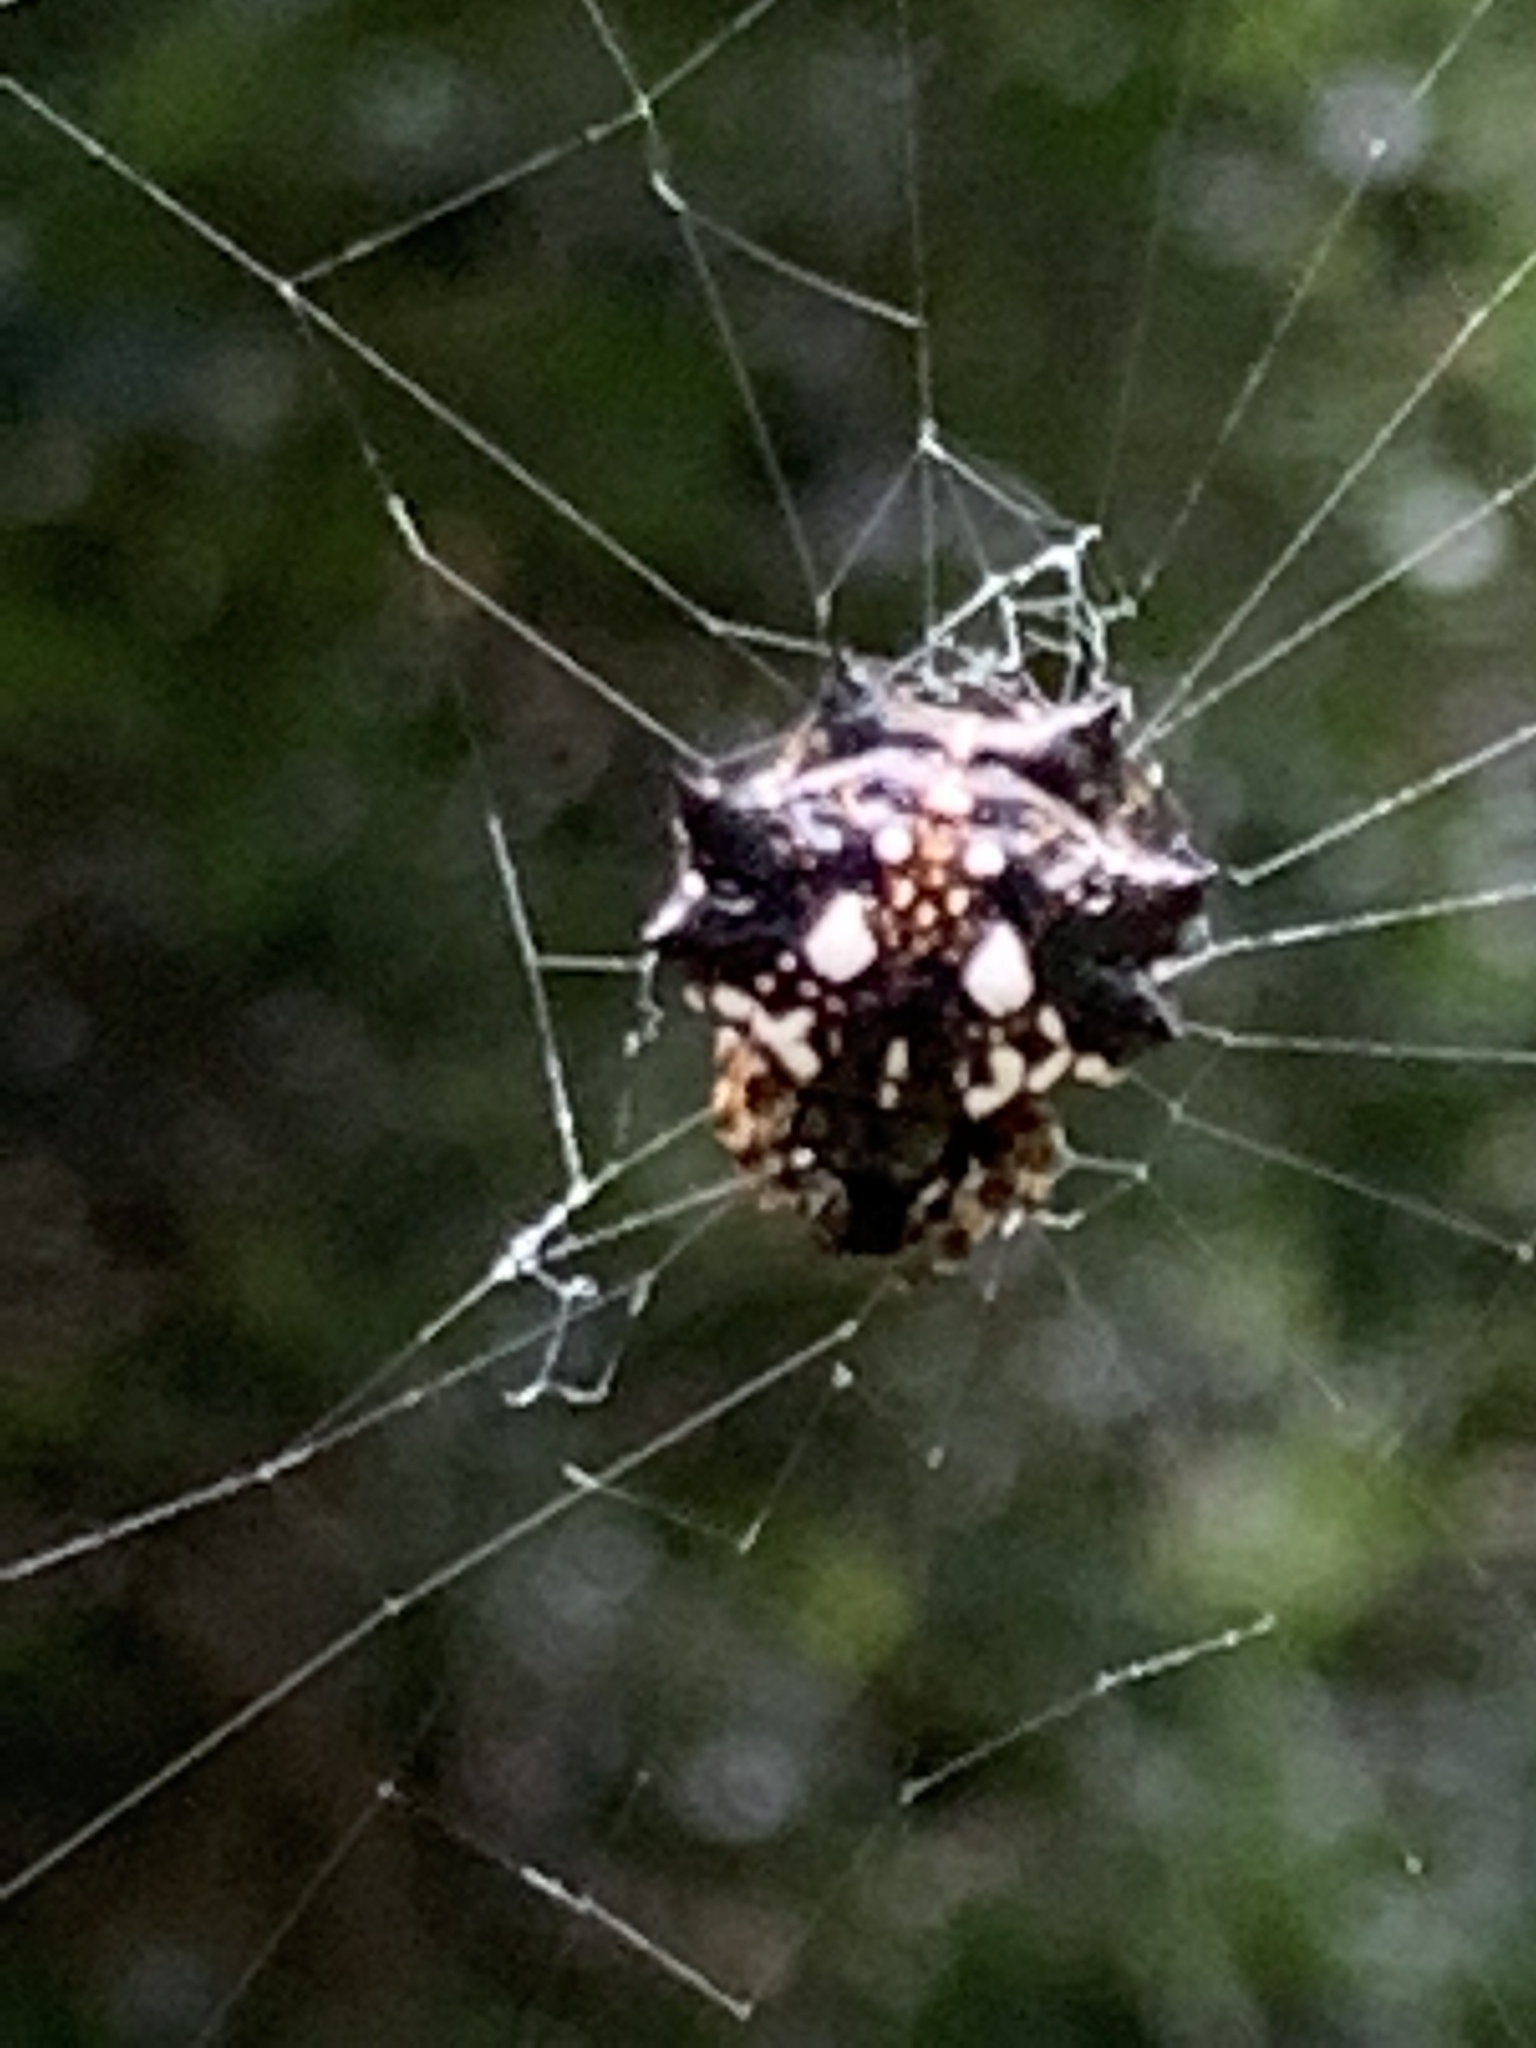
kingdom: Animalia
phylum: Arthropoda
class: Arachnida
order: Araneae
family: Araneidae
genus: Thelacantha
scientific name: Thelacantha brevispina
